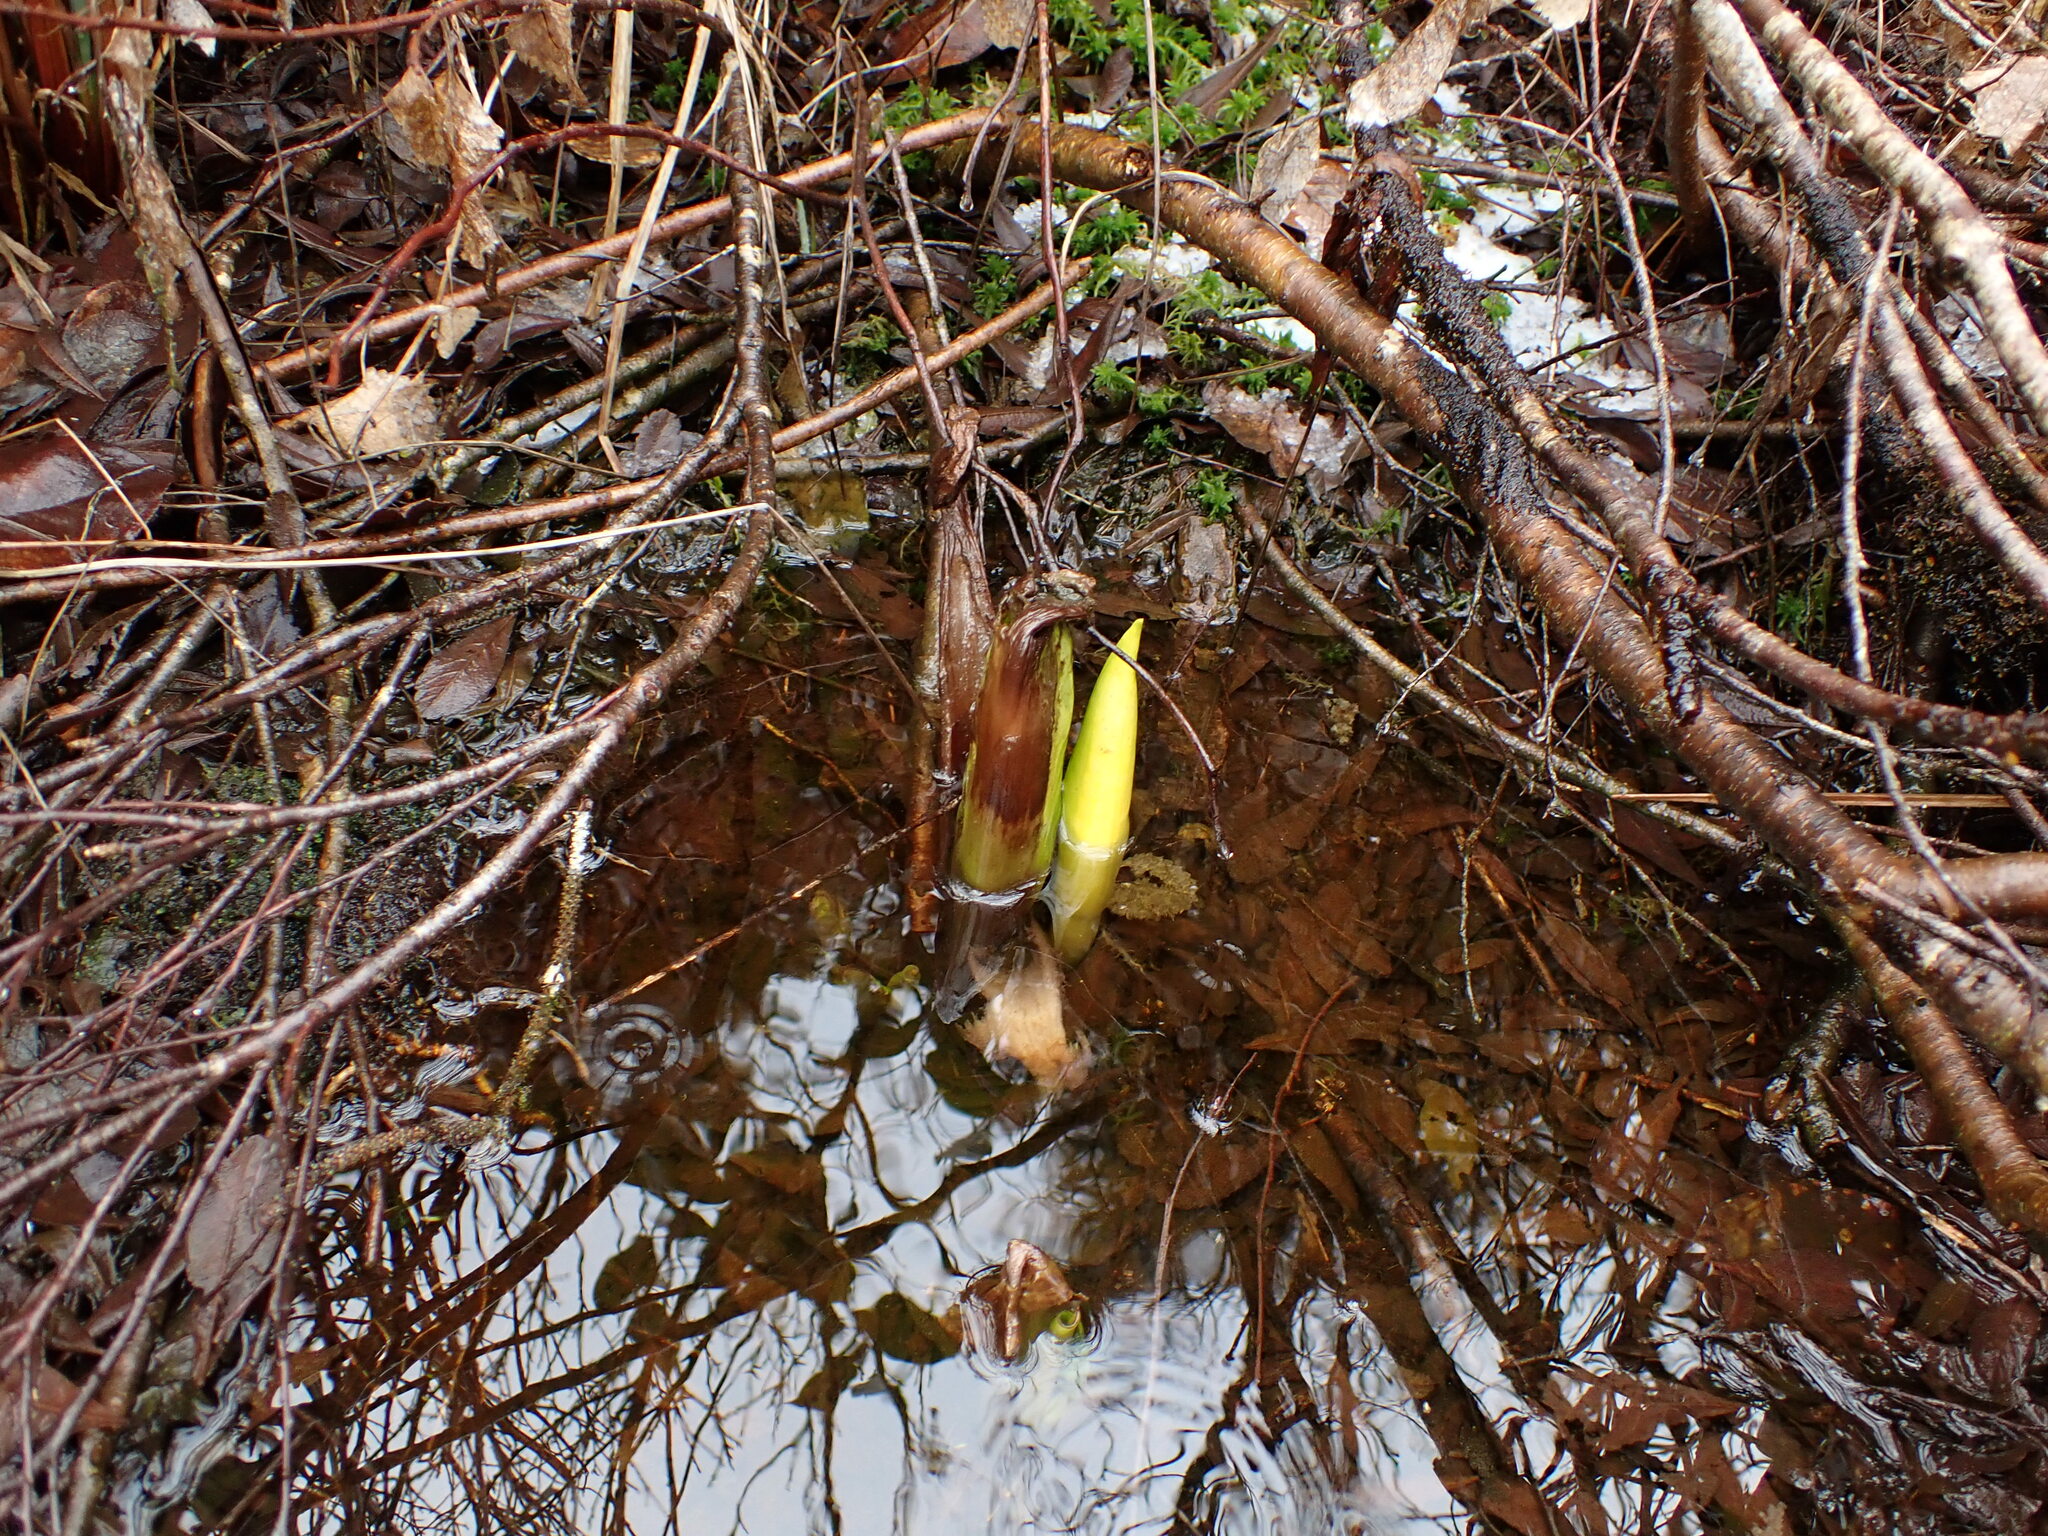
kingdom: Plantae
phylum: Tracheophyta
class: Liliopsida
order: Alismatales
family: Araceae
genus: Lysichiton
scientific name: Lysichiton americanus
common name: American skunk cabbage
